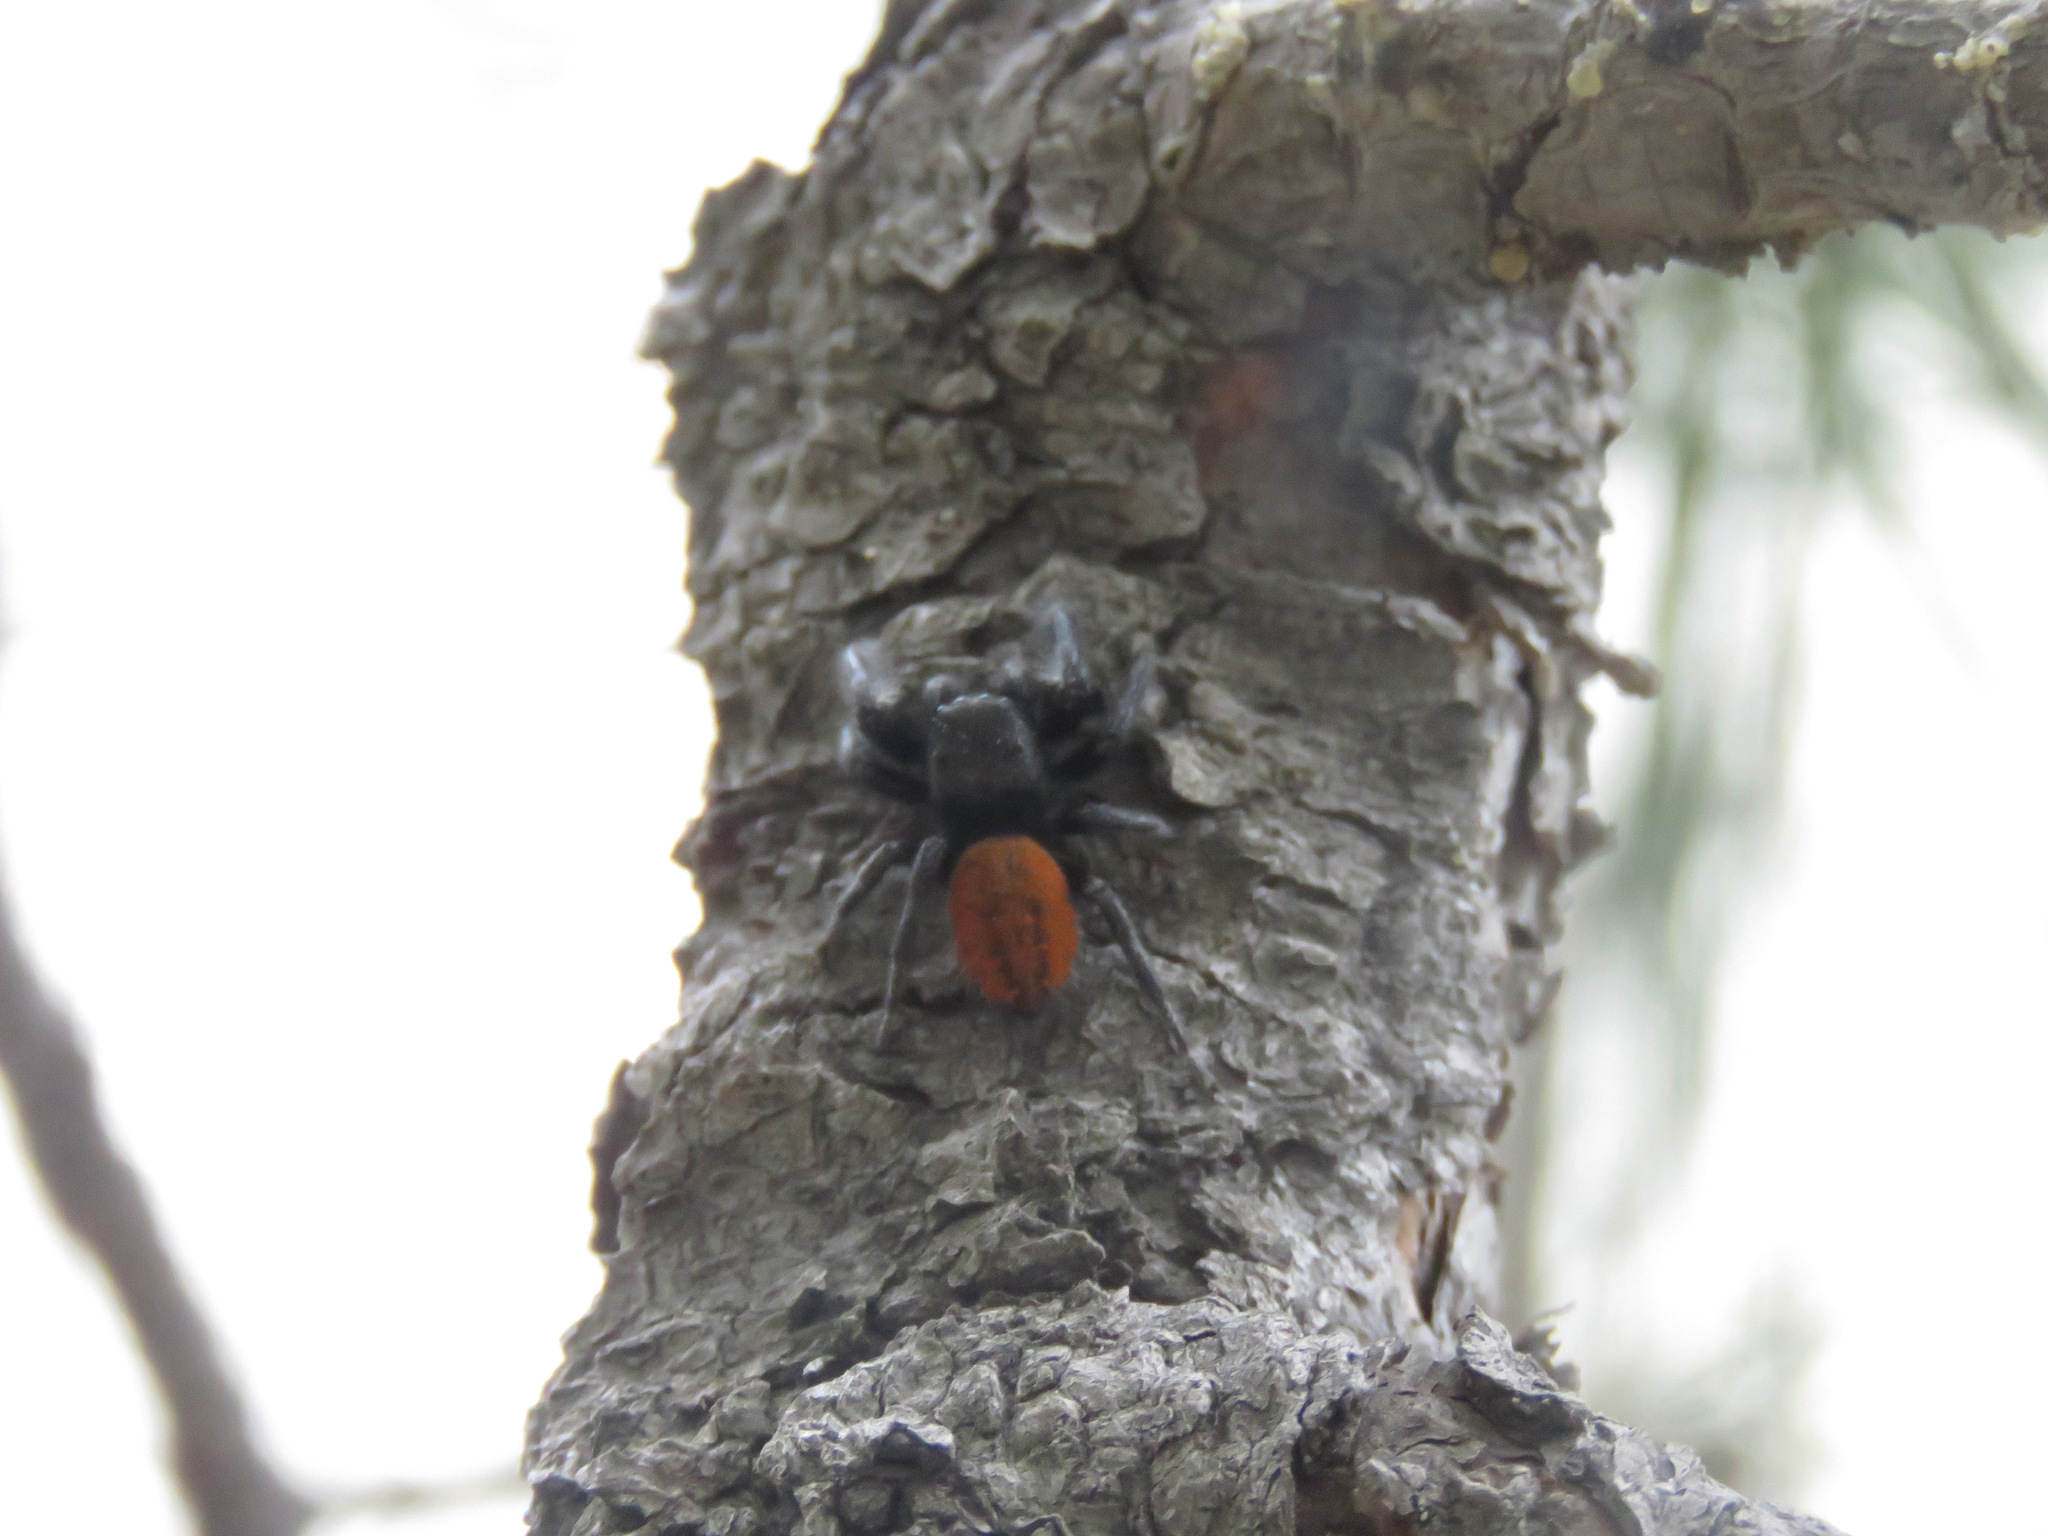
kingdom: Animalia
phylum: Arthropoda
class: Arachnida
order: Araneae
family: Salticidae
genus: Phidippus
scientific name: Phidippus johnsoni
